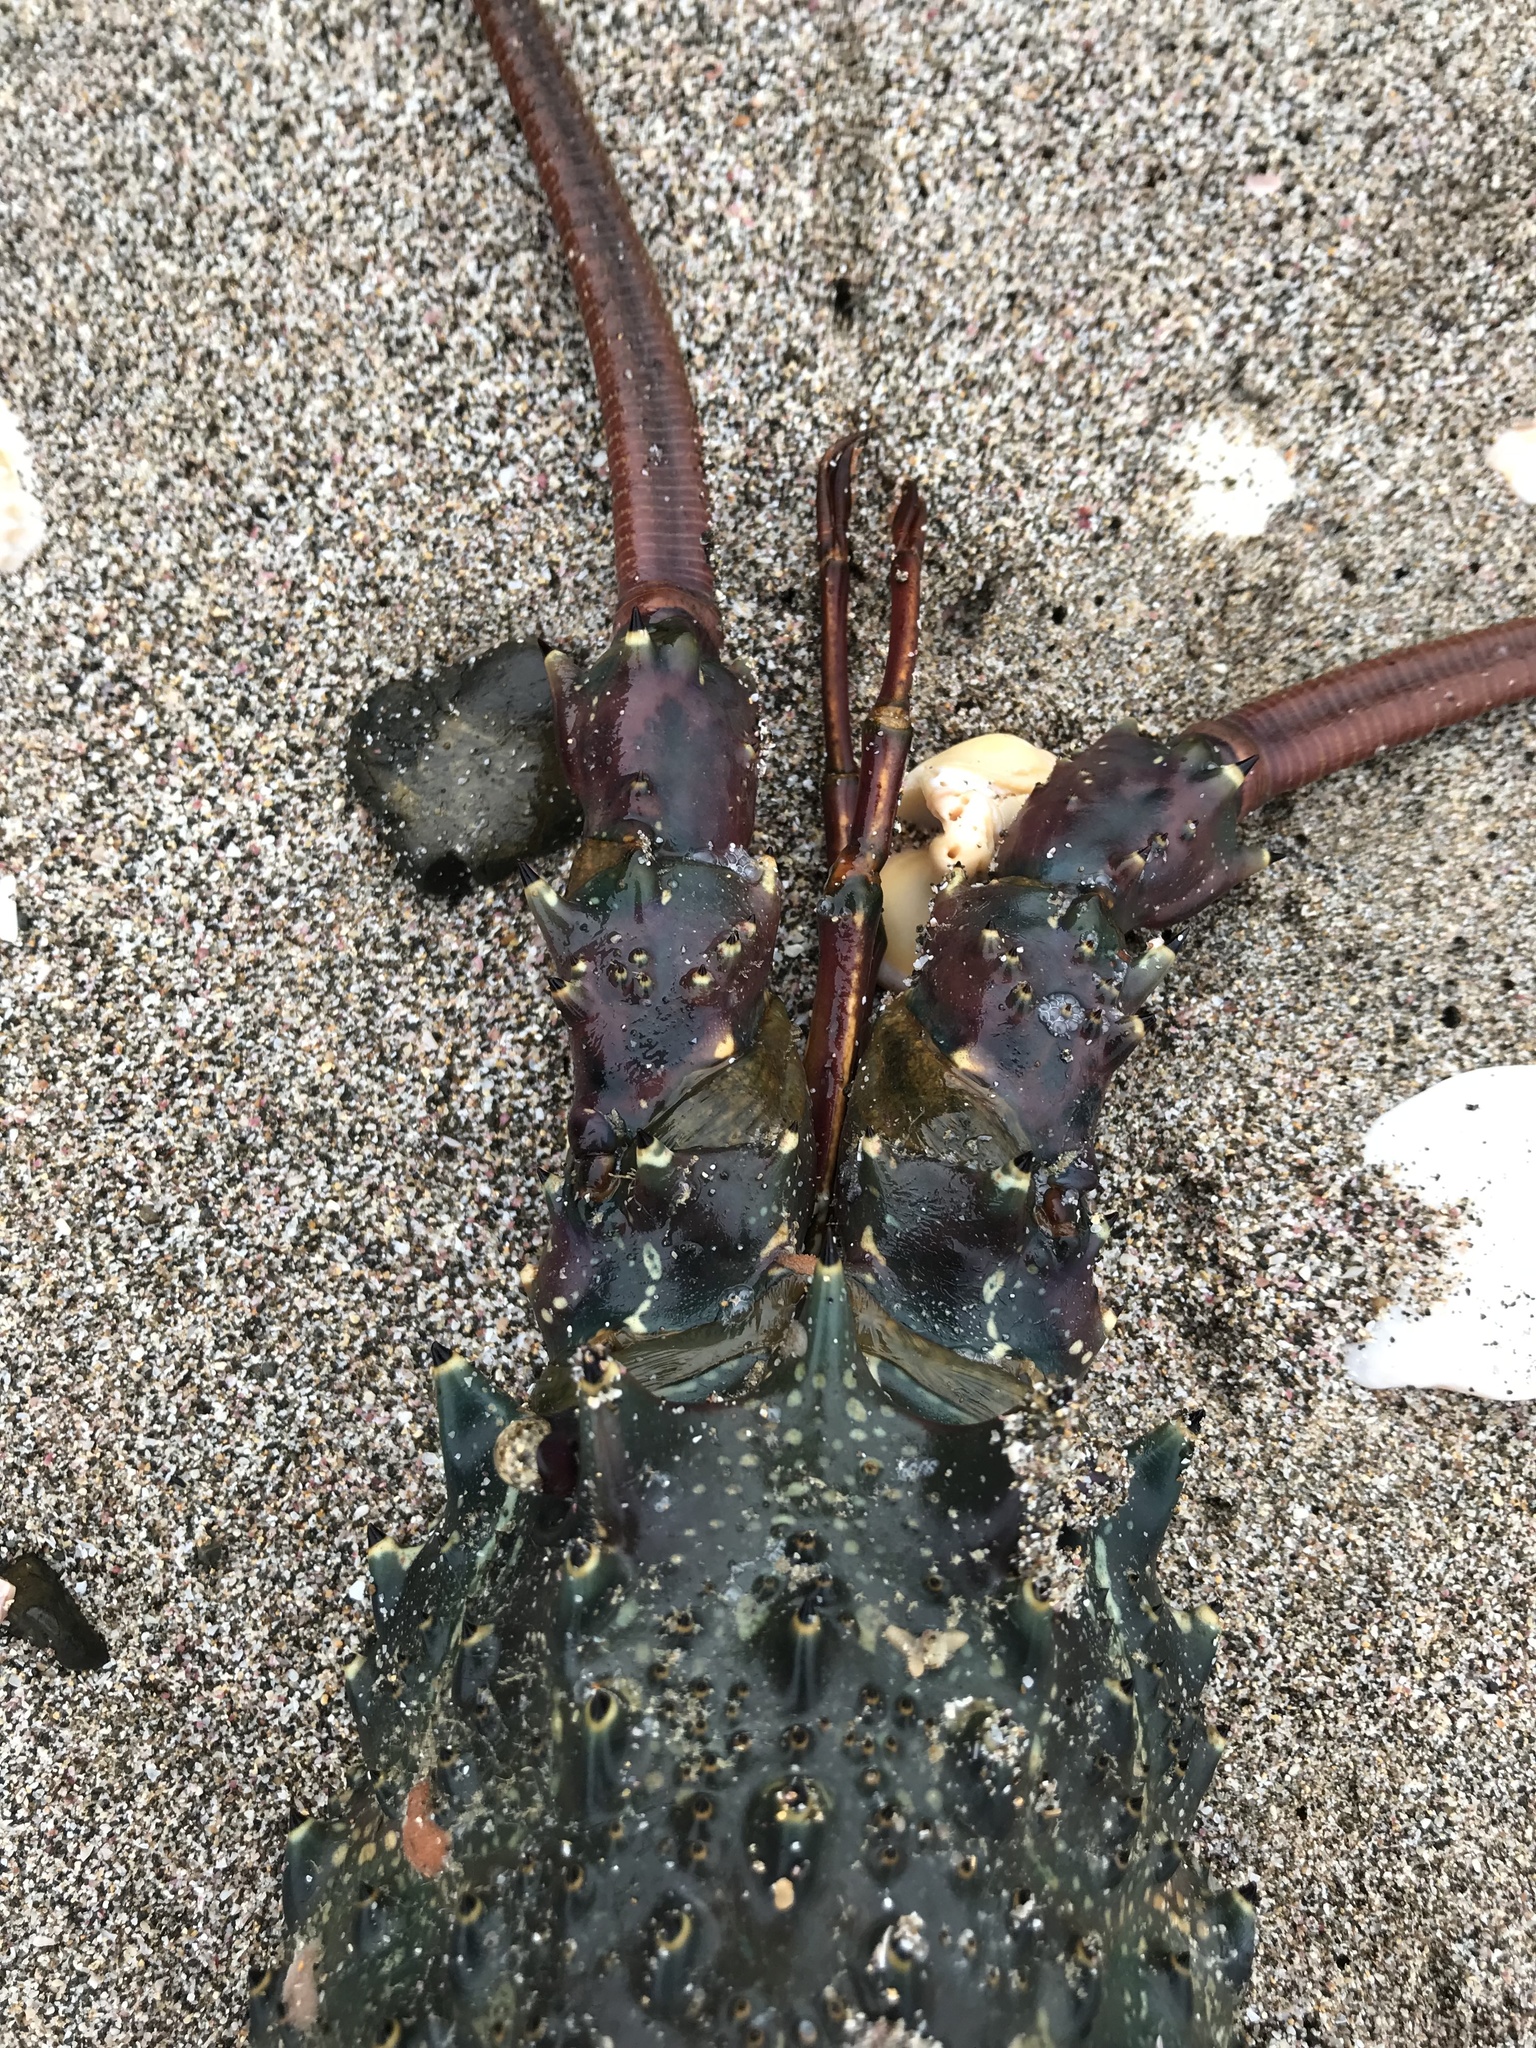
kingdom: Animalia
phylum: Arthropoda
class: Malacostraca
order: Decapoda
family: Palinuridae
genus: Sagmariasus
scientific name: Sagmariasus verreauxi
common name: Green rock lobster
